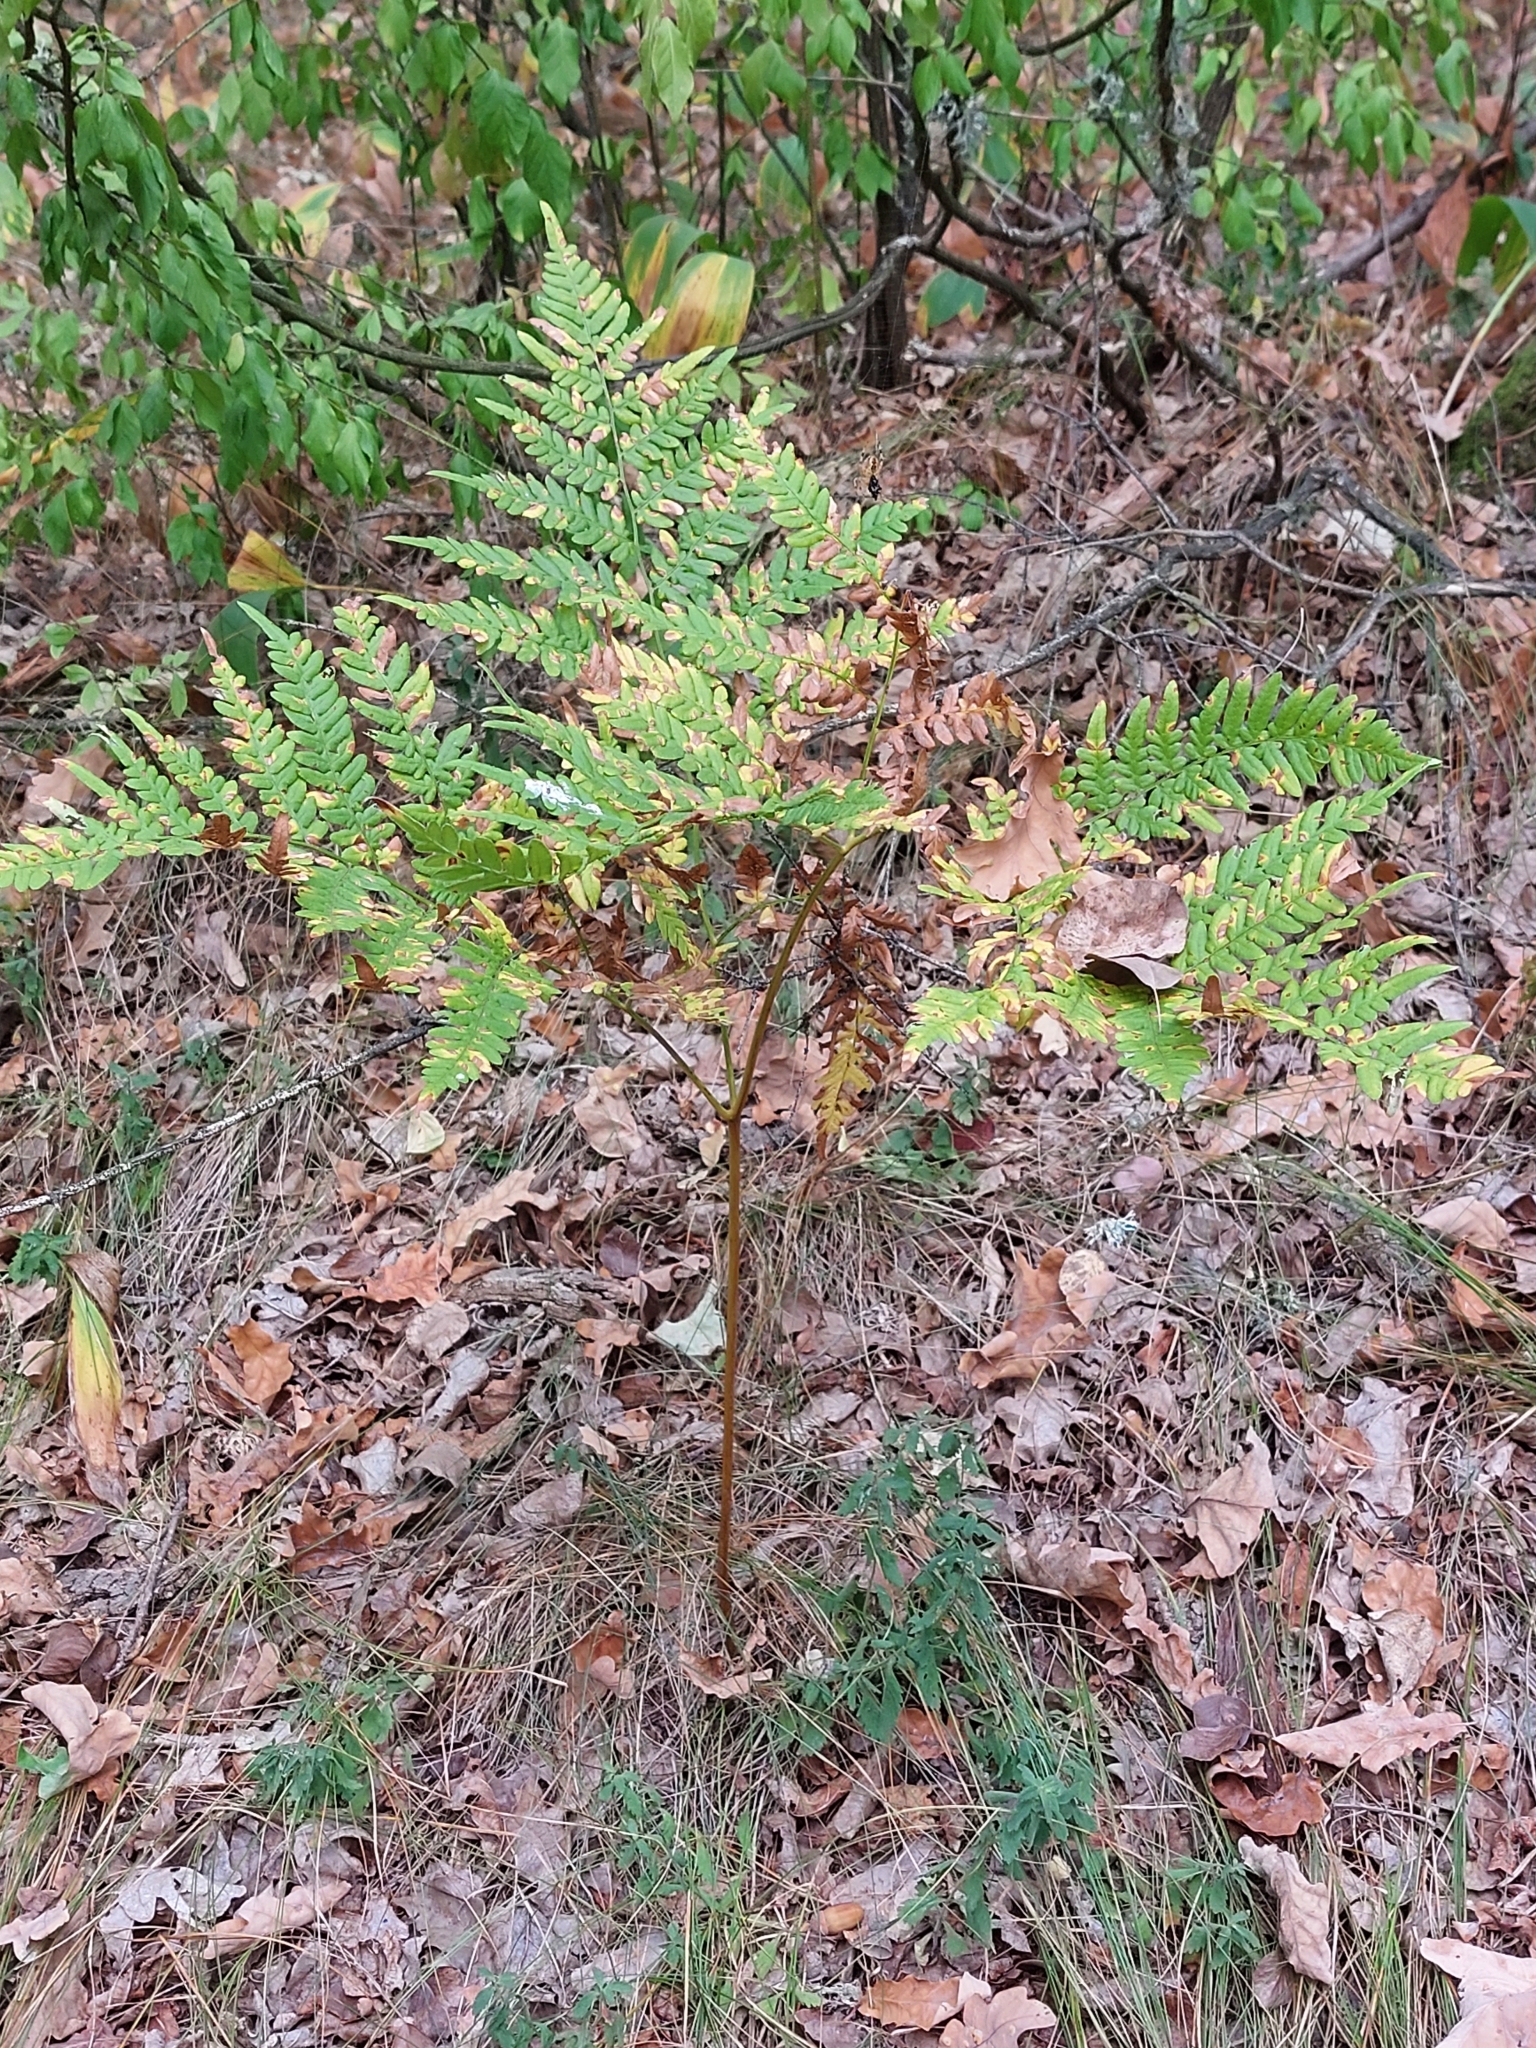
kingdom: Plantae
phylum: Tracheophyta
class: Polypodiopsida
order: Polypodiales
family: Dennstaedtiaceae
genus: Pteridium
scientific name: Pteridium aquilinum
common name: Bracken
